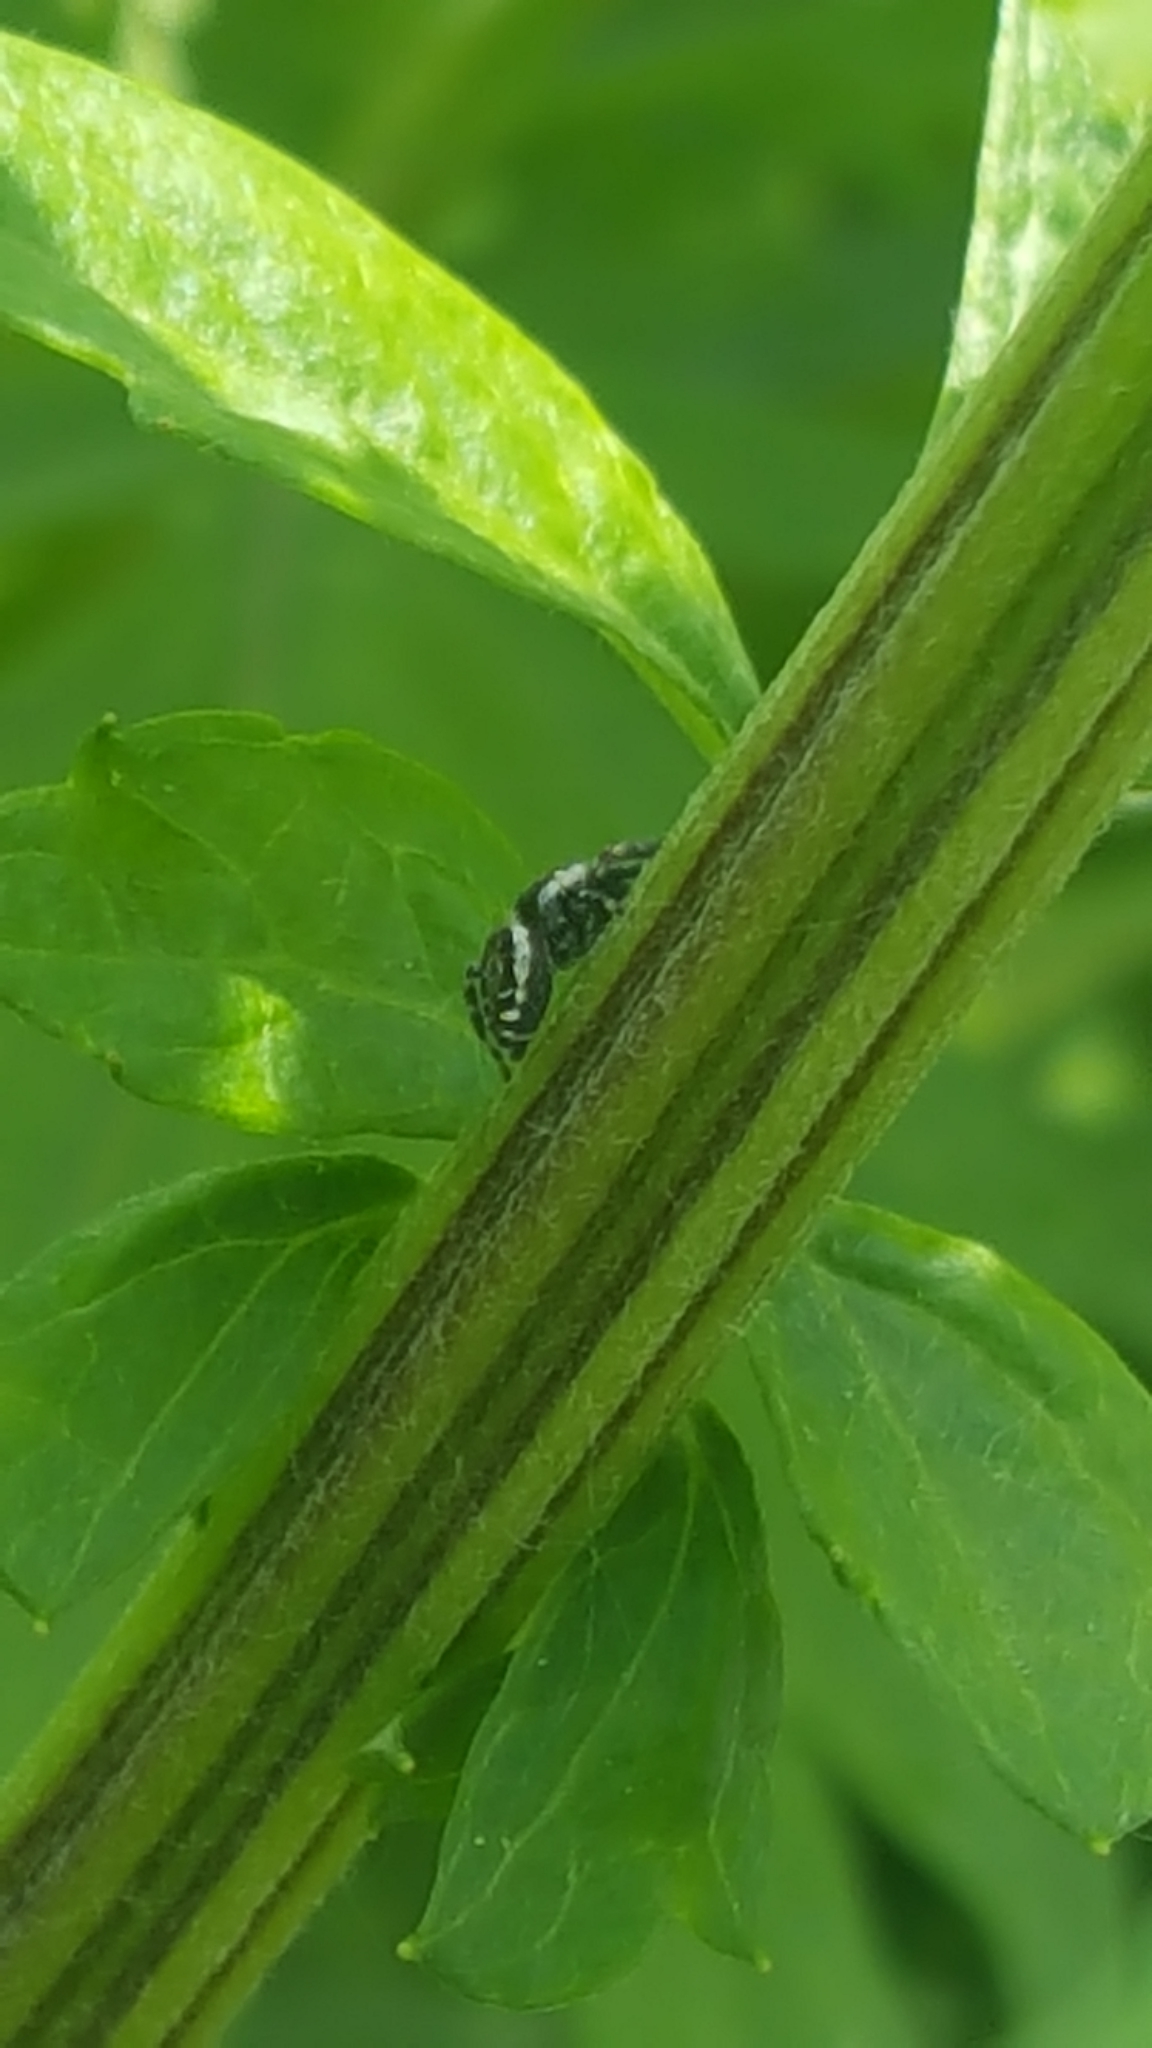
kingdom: Animalia
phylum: Arthropoda
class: Arachnida
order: Araneae
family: Salticidae
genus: Pelegrina
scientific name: Pelegrina galathea
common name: Jumping spiders
